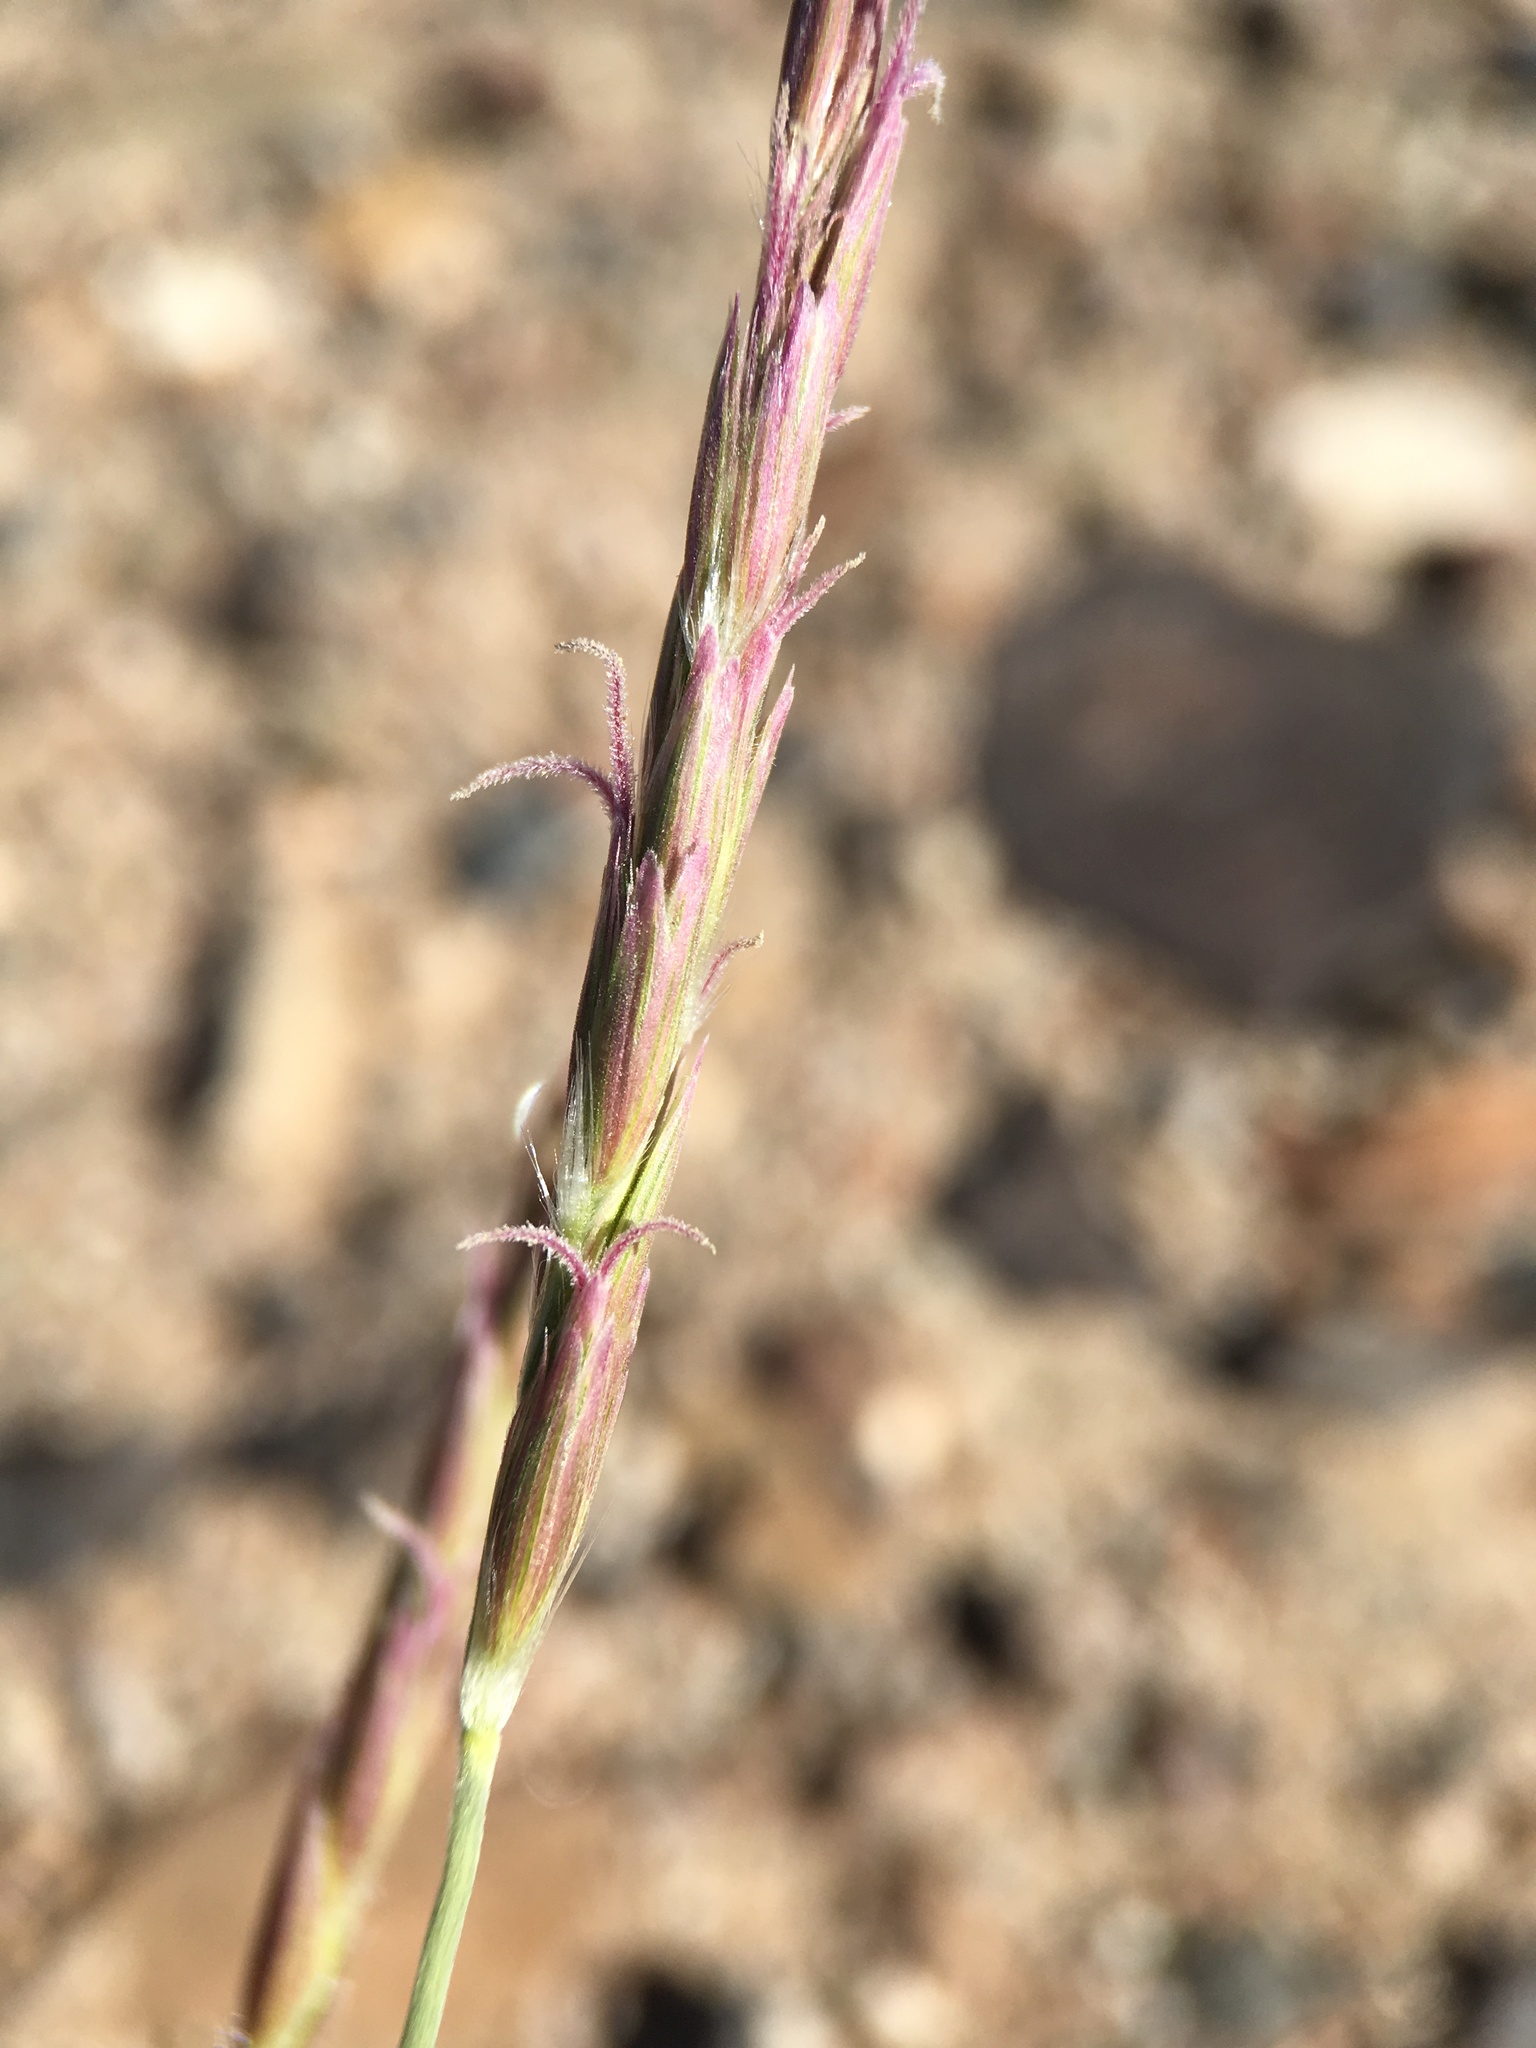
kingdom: Plantae
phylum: Tracheophyta
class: Liliopsida
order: Poales
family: Poaceae
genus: Hilaria
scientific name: Hilaria jamesii
